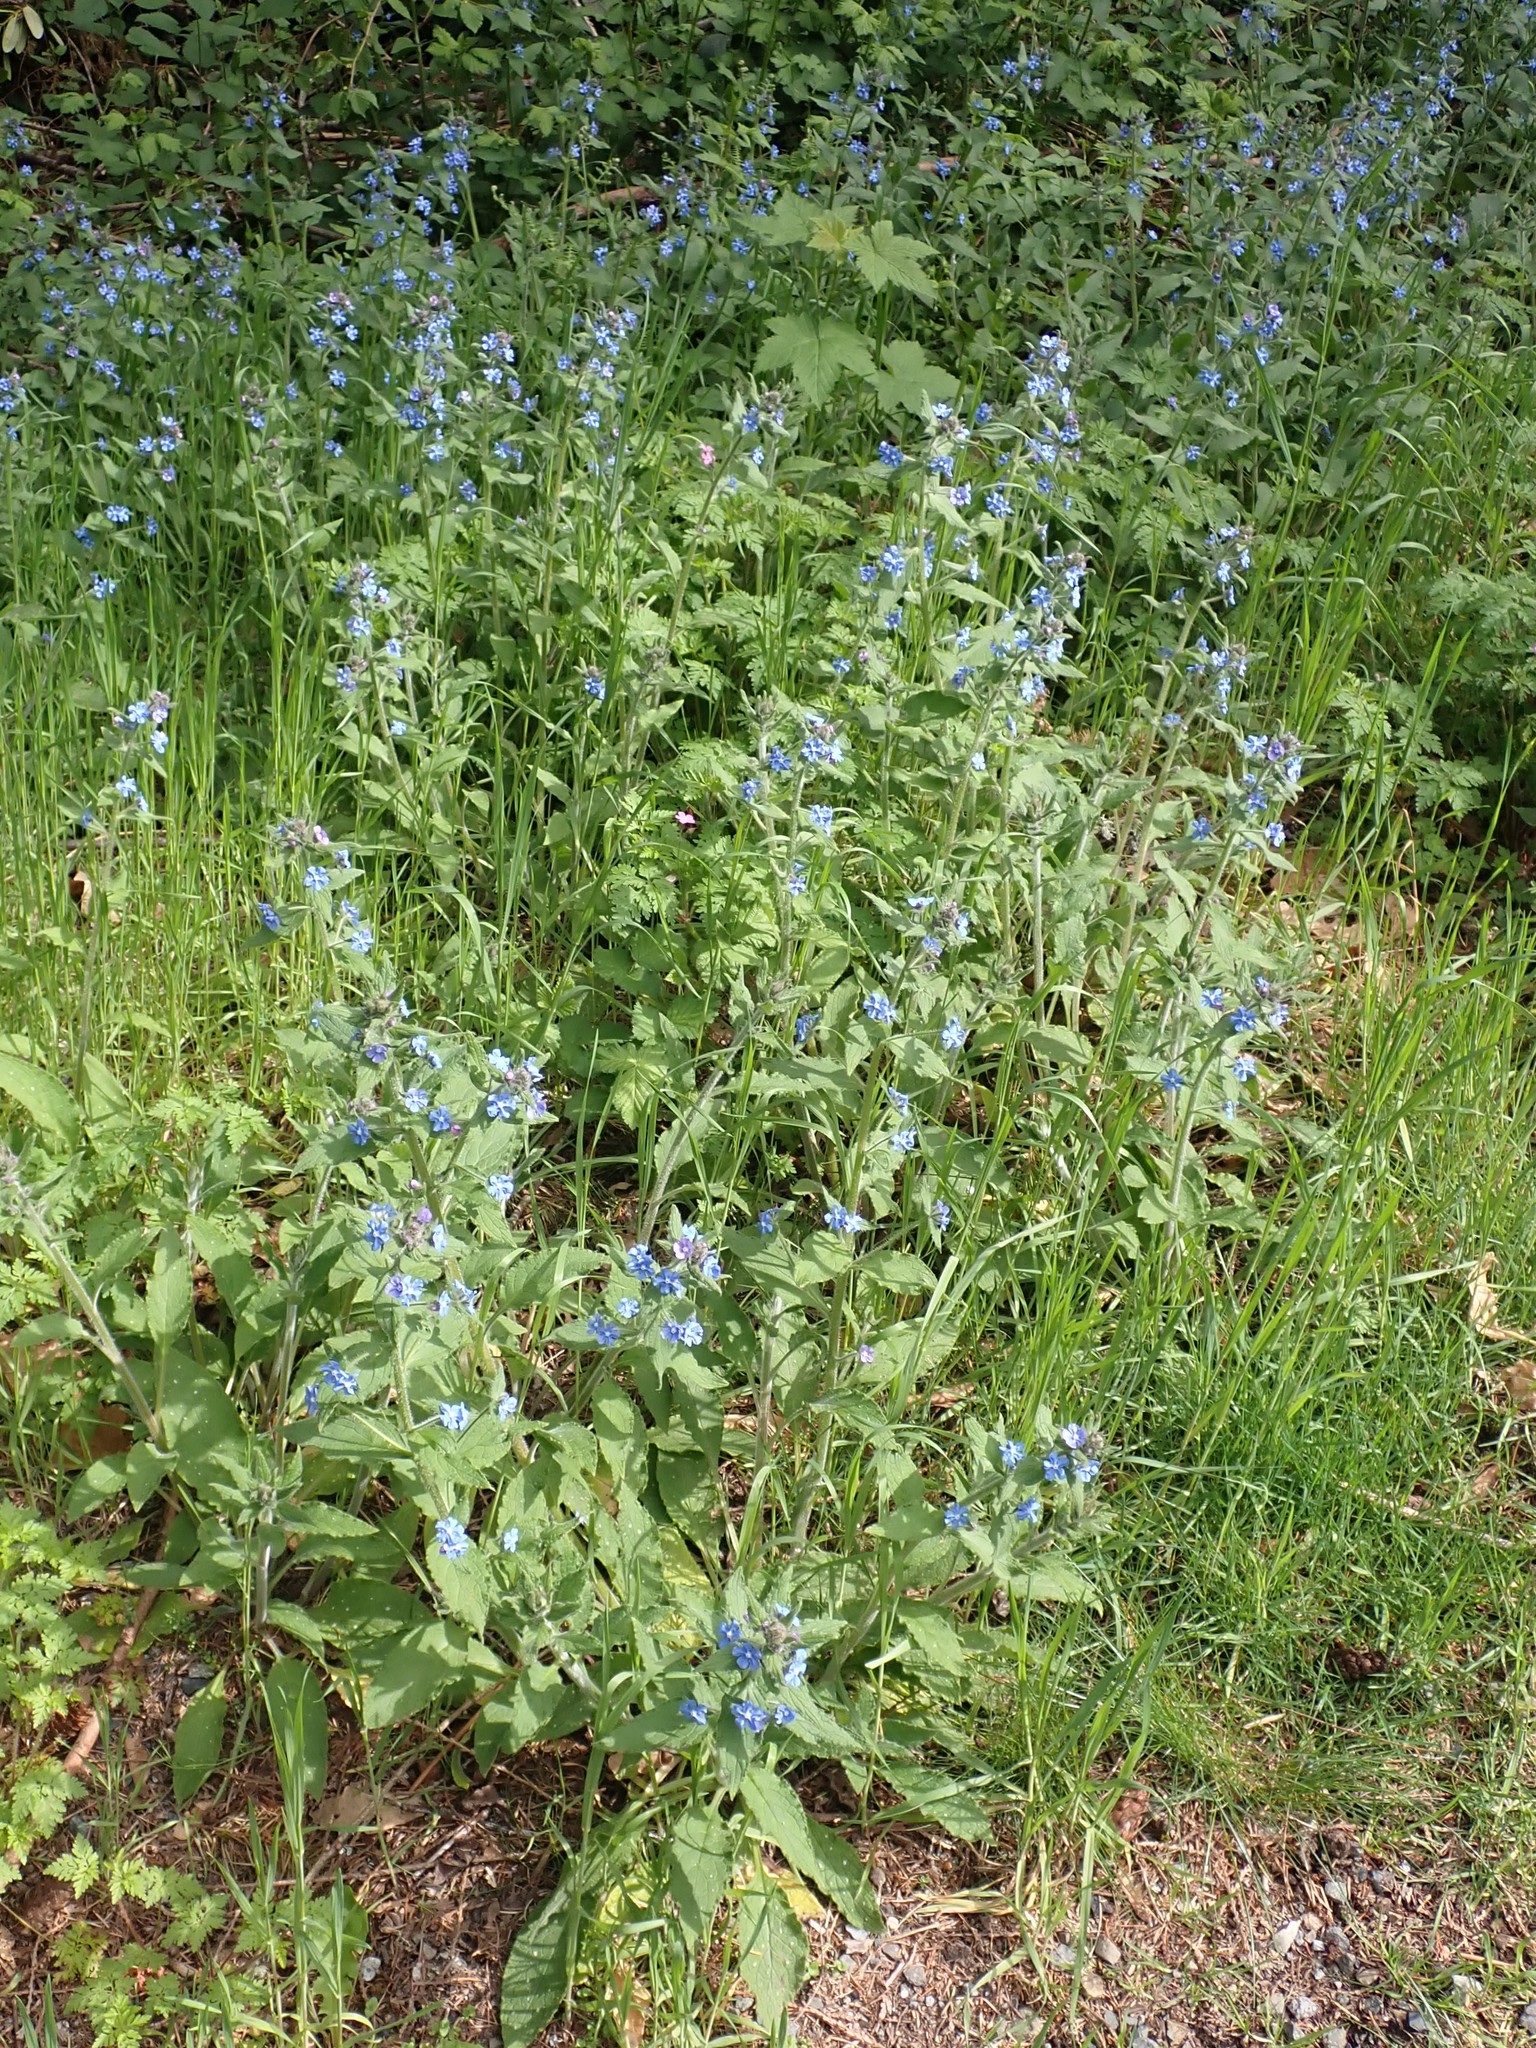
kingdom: Plantae
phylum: Tracheophyta
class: Magnoliopsida
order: Boraginales
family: Boraginaceae
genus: Pentaglottis
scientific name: Pentaglottis sempervirens
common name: Green alkanet
